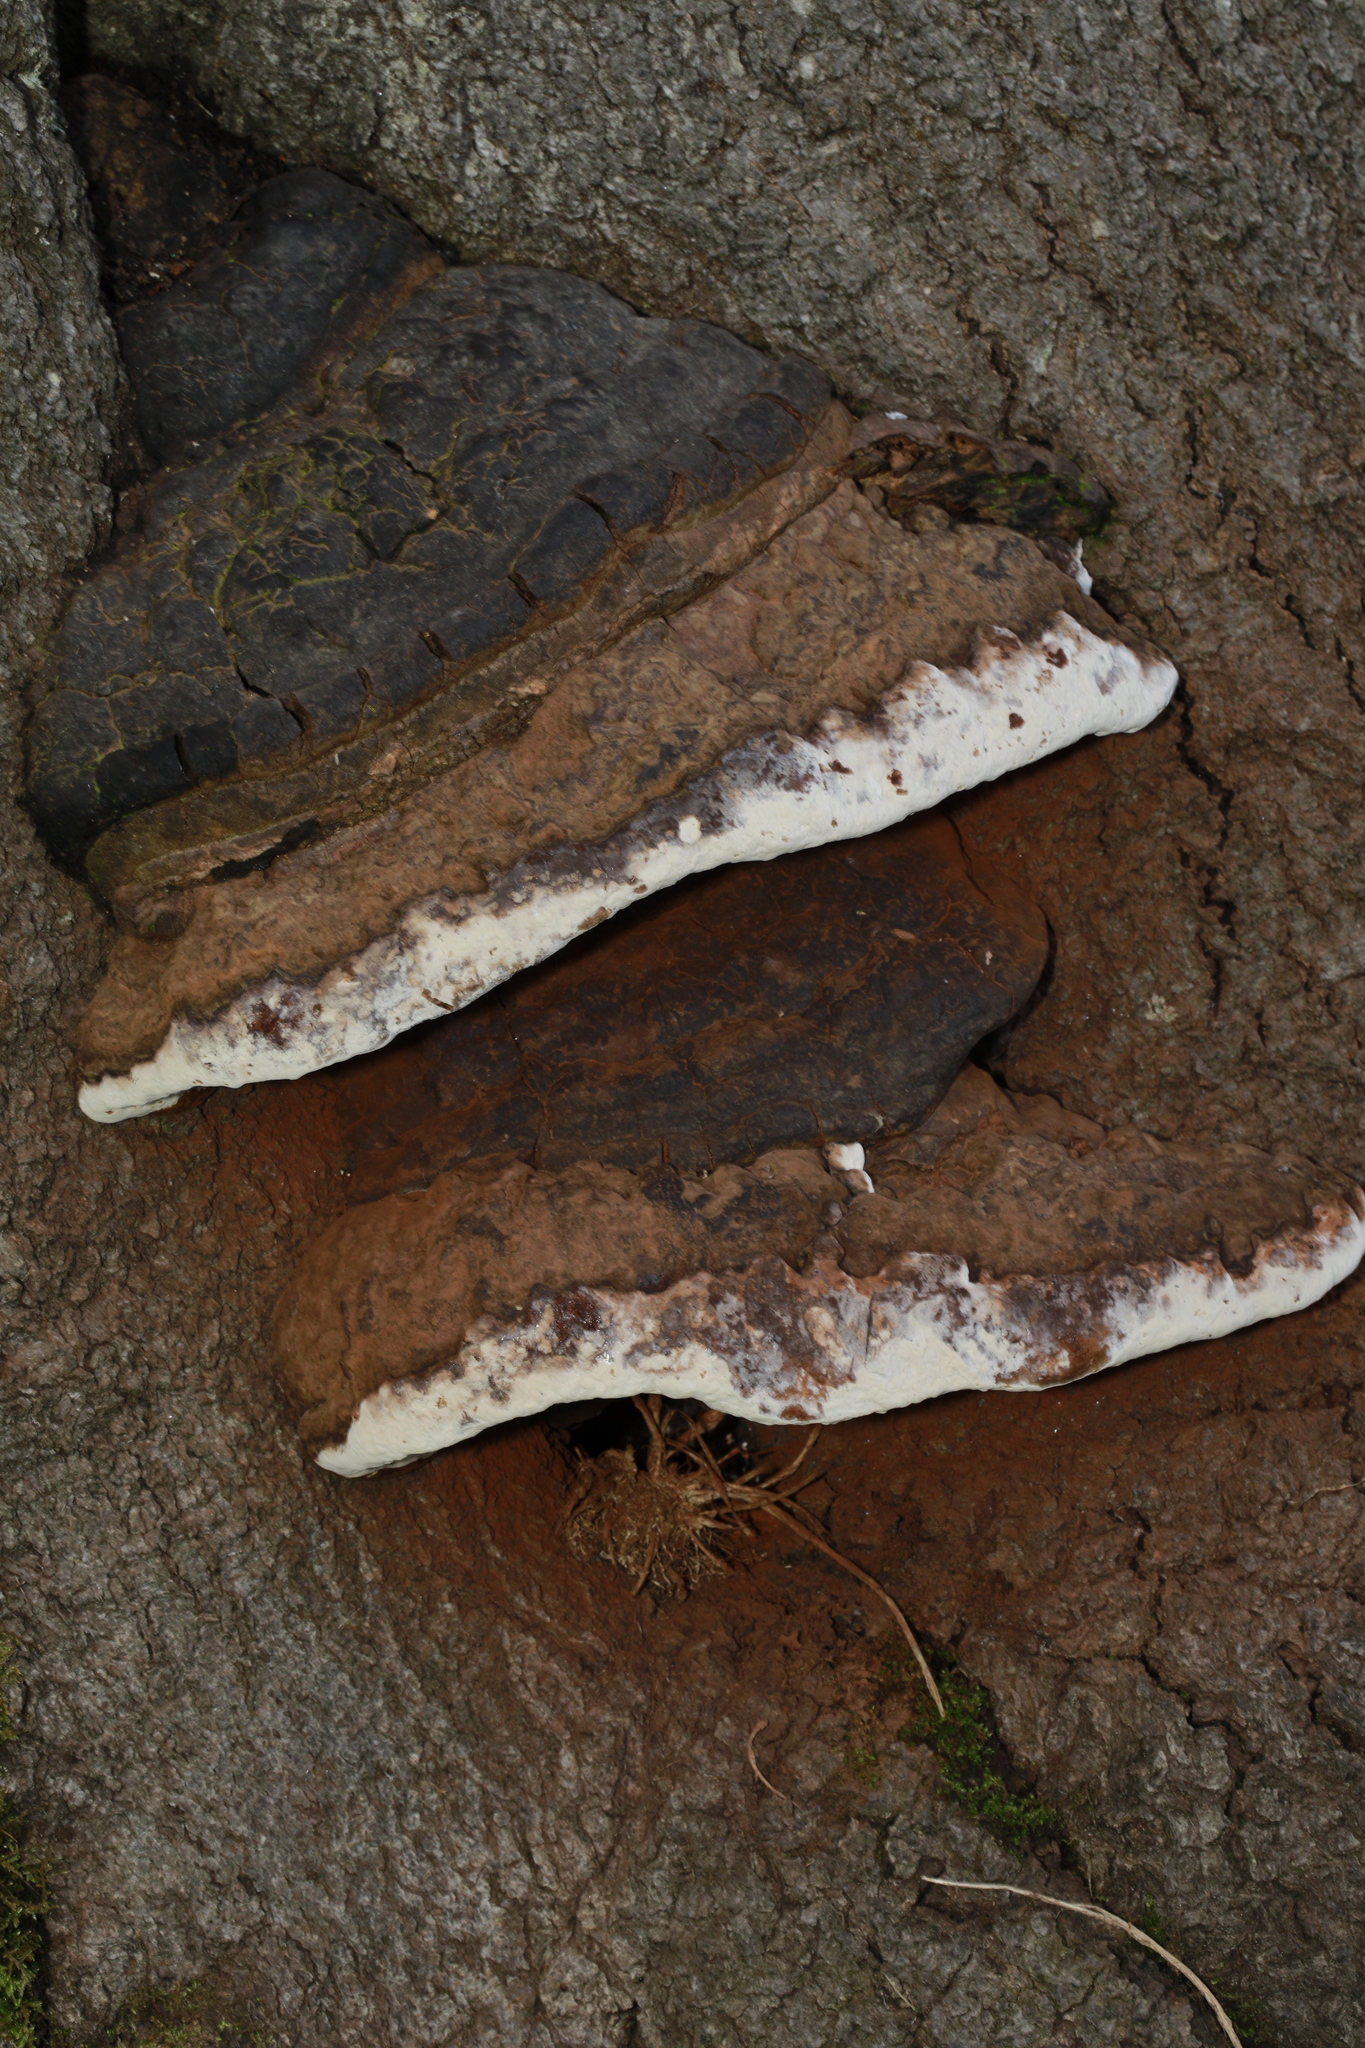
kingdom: Fungi
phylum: Basidiomycota
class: Agaricomycetes
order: Polyporales
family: Polyporaceae
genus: Ganoderma
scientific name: Ganoderma applanatum
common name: Artist's bracket
